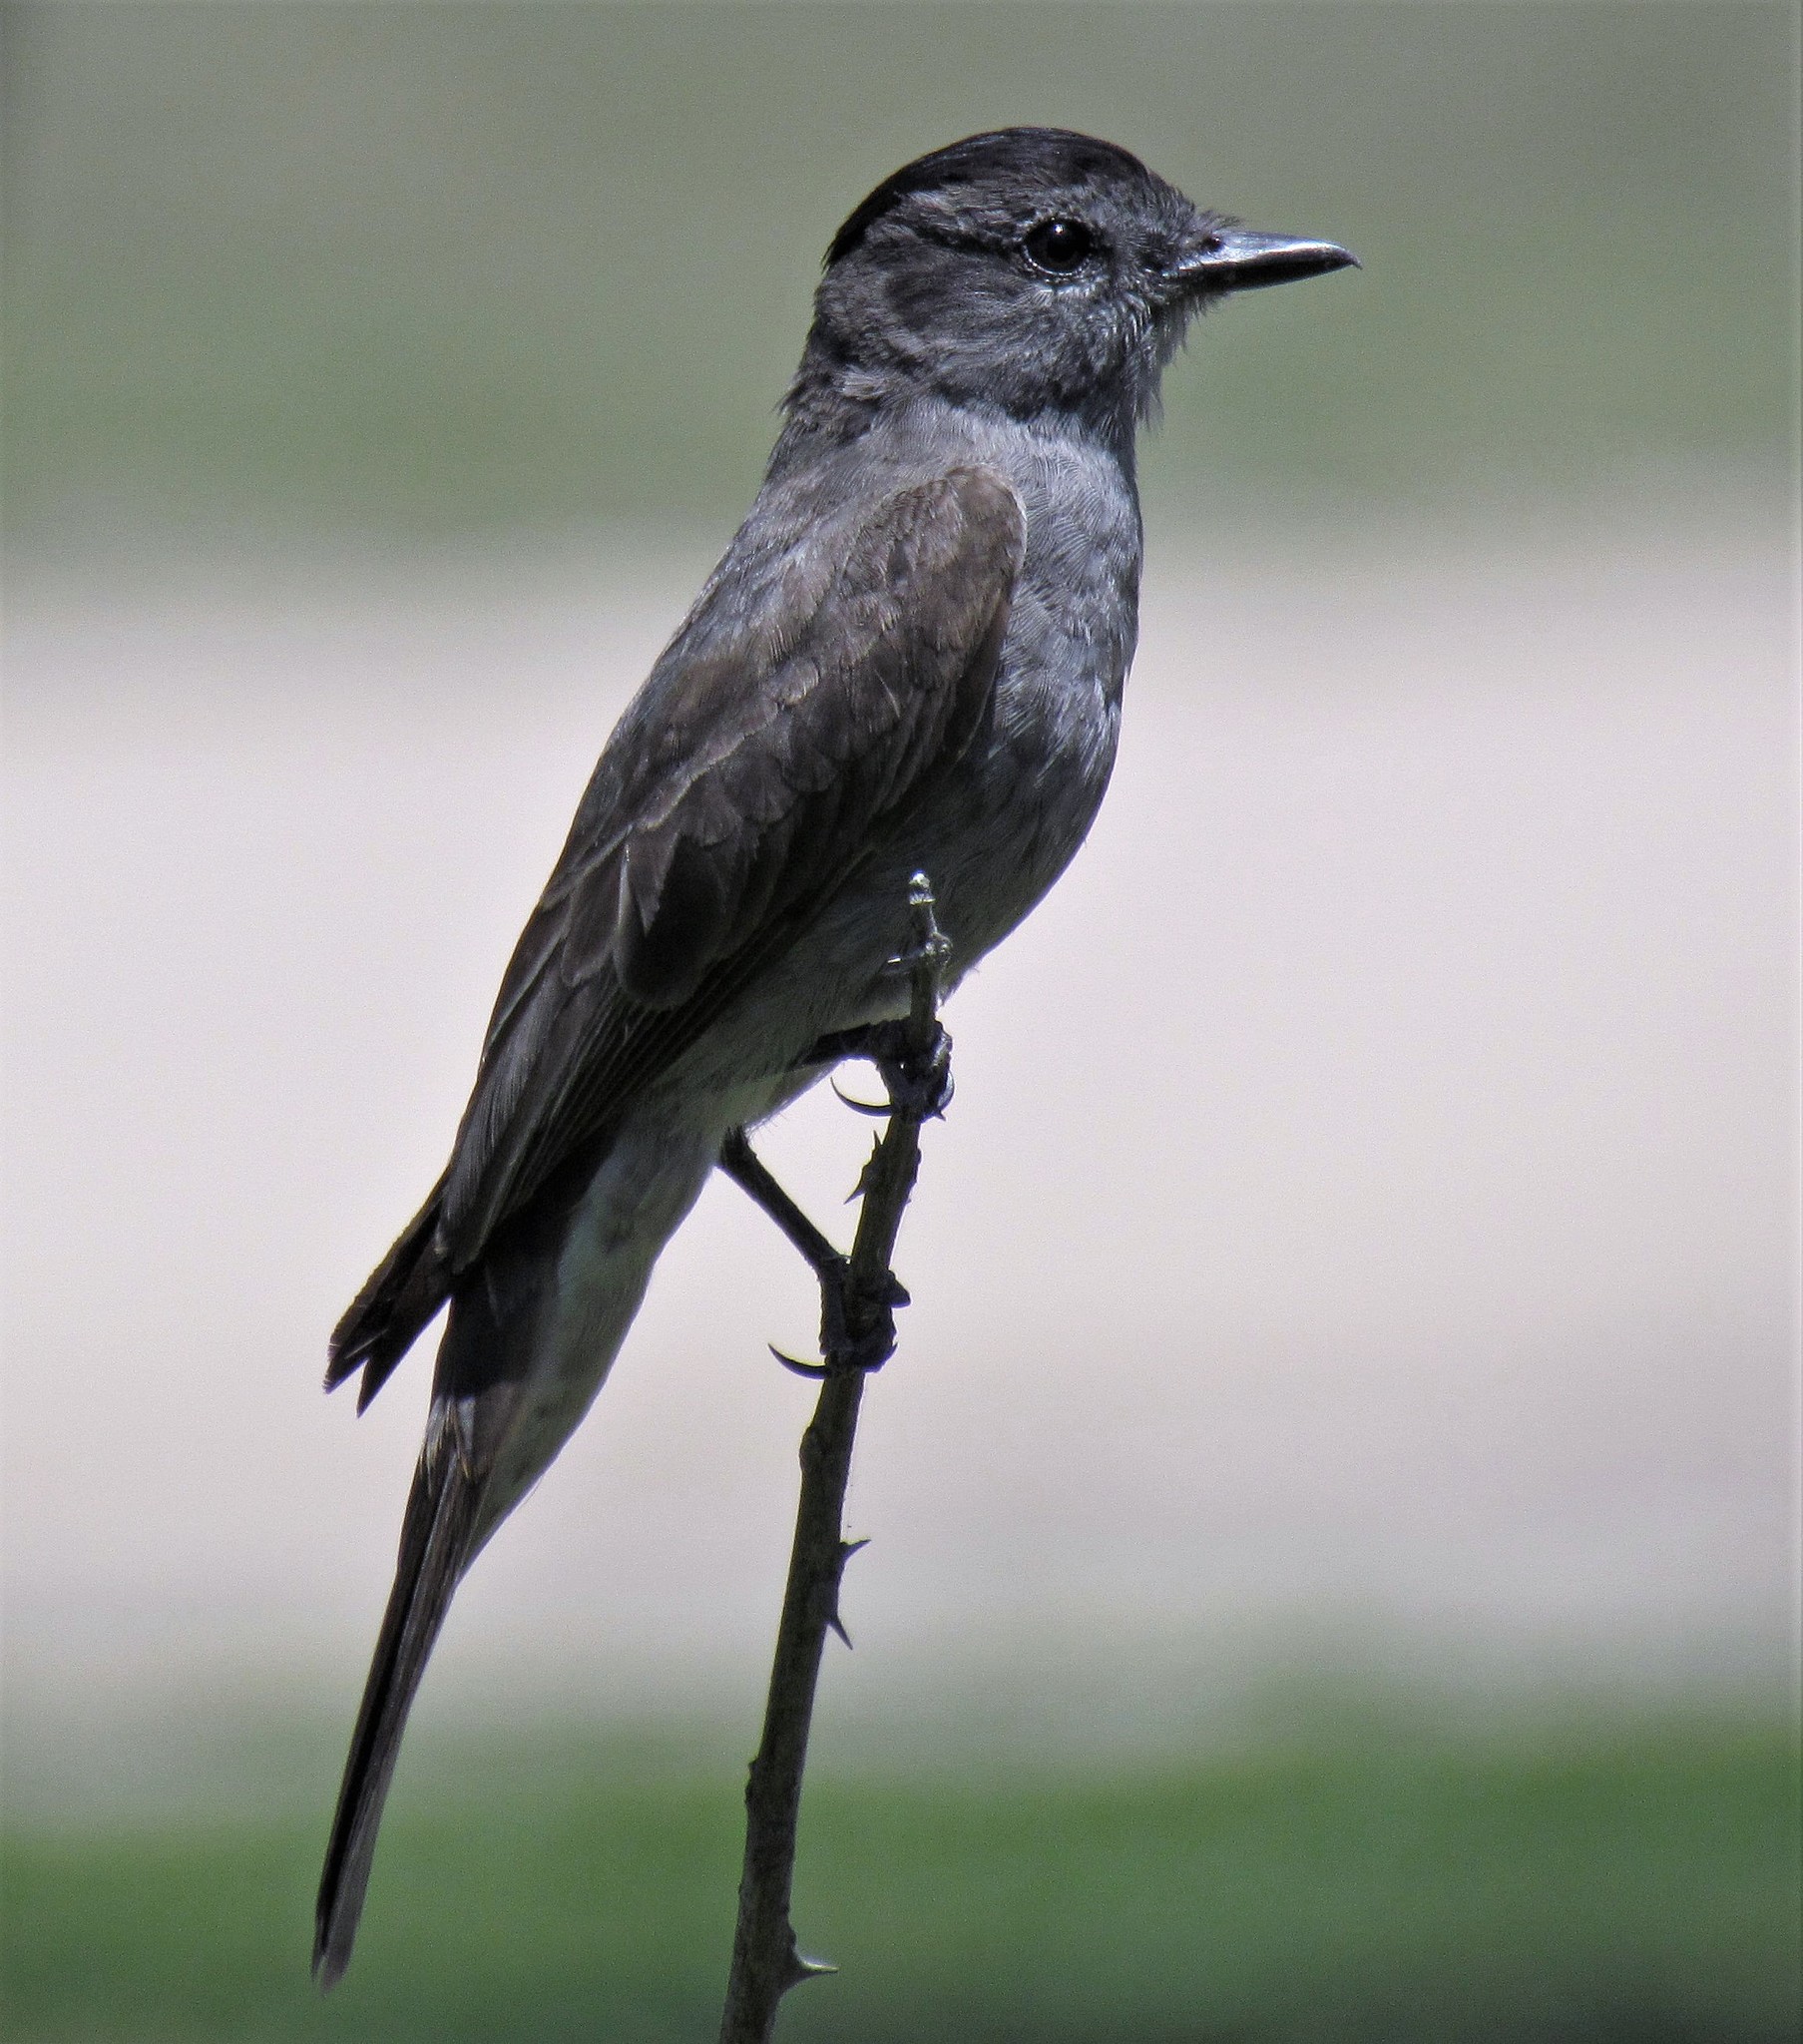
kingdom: Animalia
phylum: Chordata
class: Aves
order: Passeriformes
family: Tyrannidae
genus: Empidonomus
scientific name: Empidonomus aurantioatrocristatus
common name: Crowned slaty flycatcher
